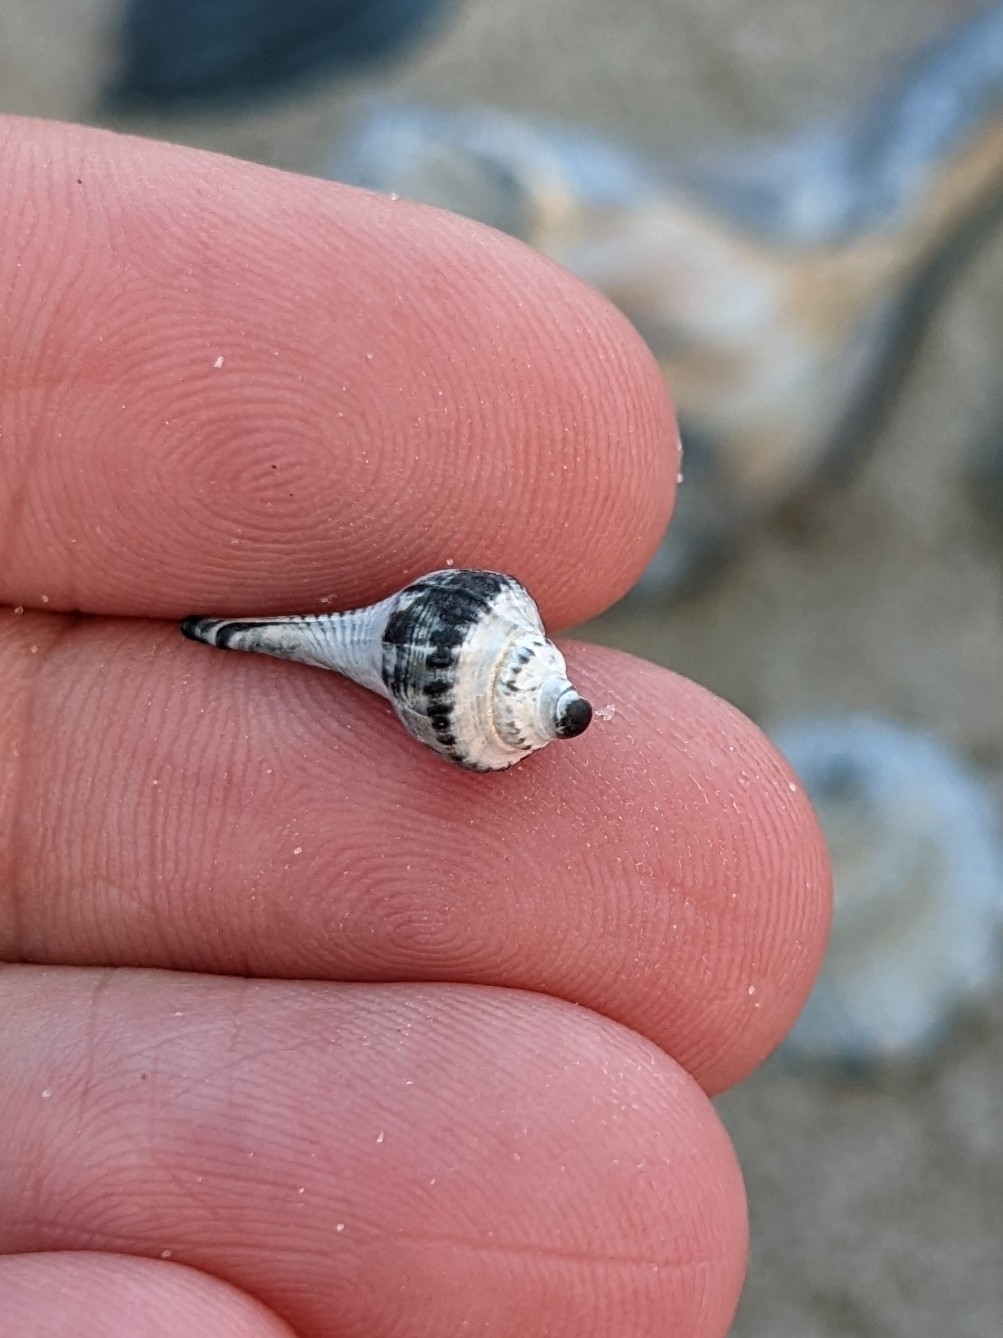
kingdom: Animalia
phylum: Mollusca
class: Gastropoda
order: Neogastropoda
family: Busyconidae
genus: Busycon
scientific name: Busycon carica
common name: Knobbed whelk
